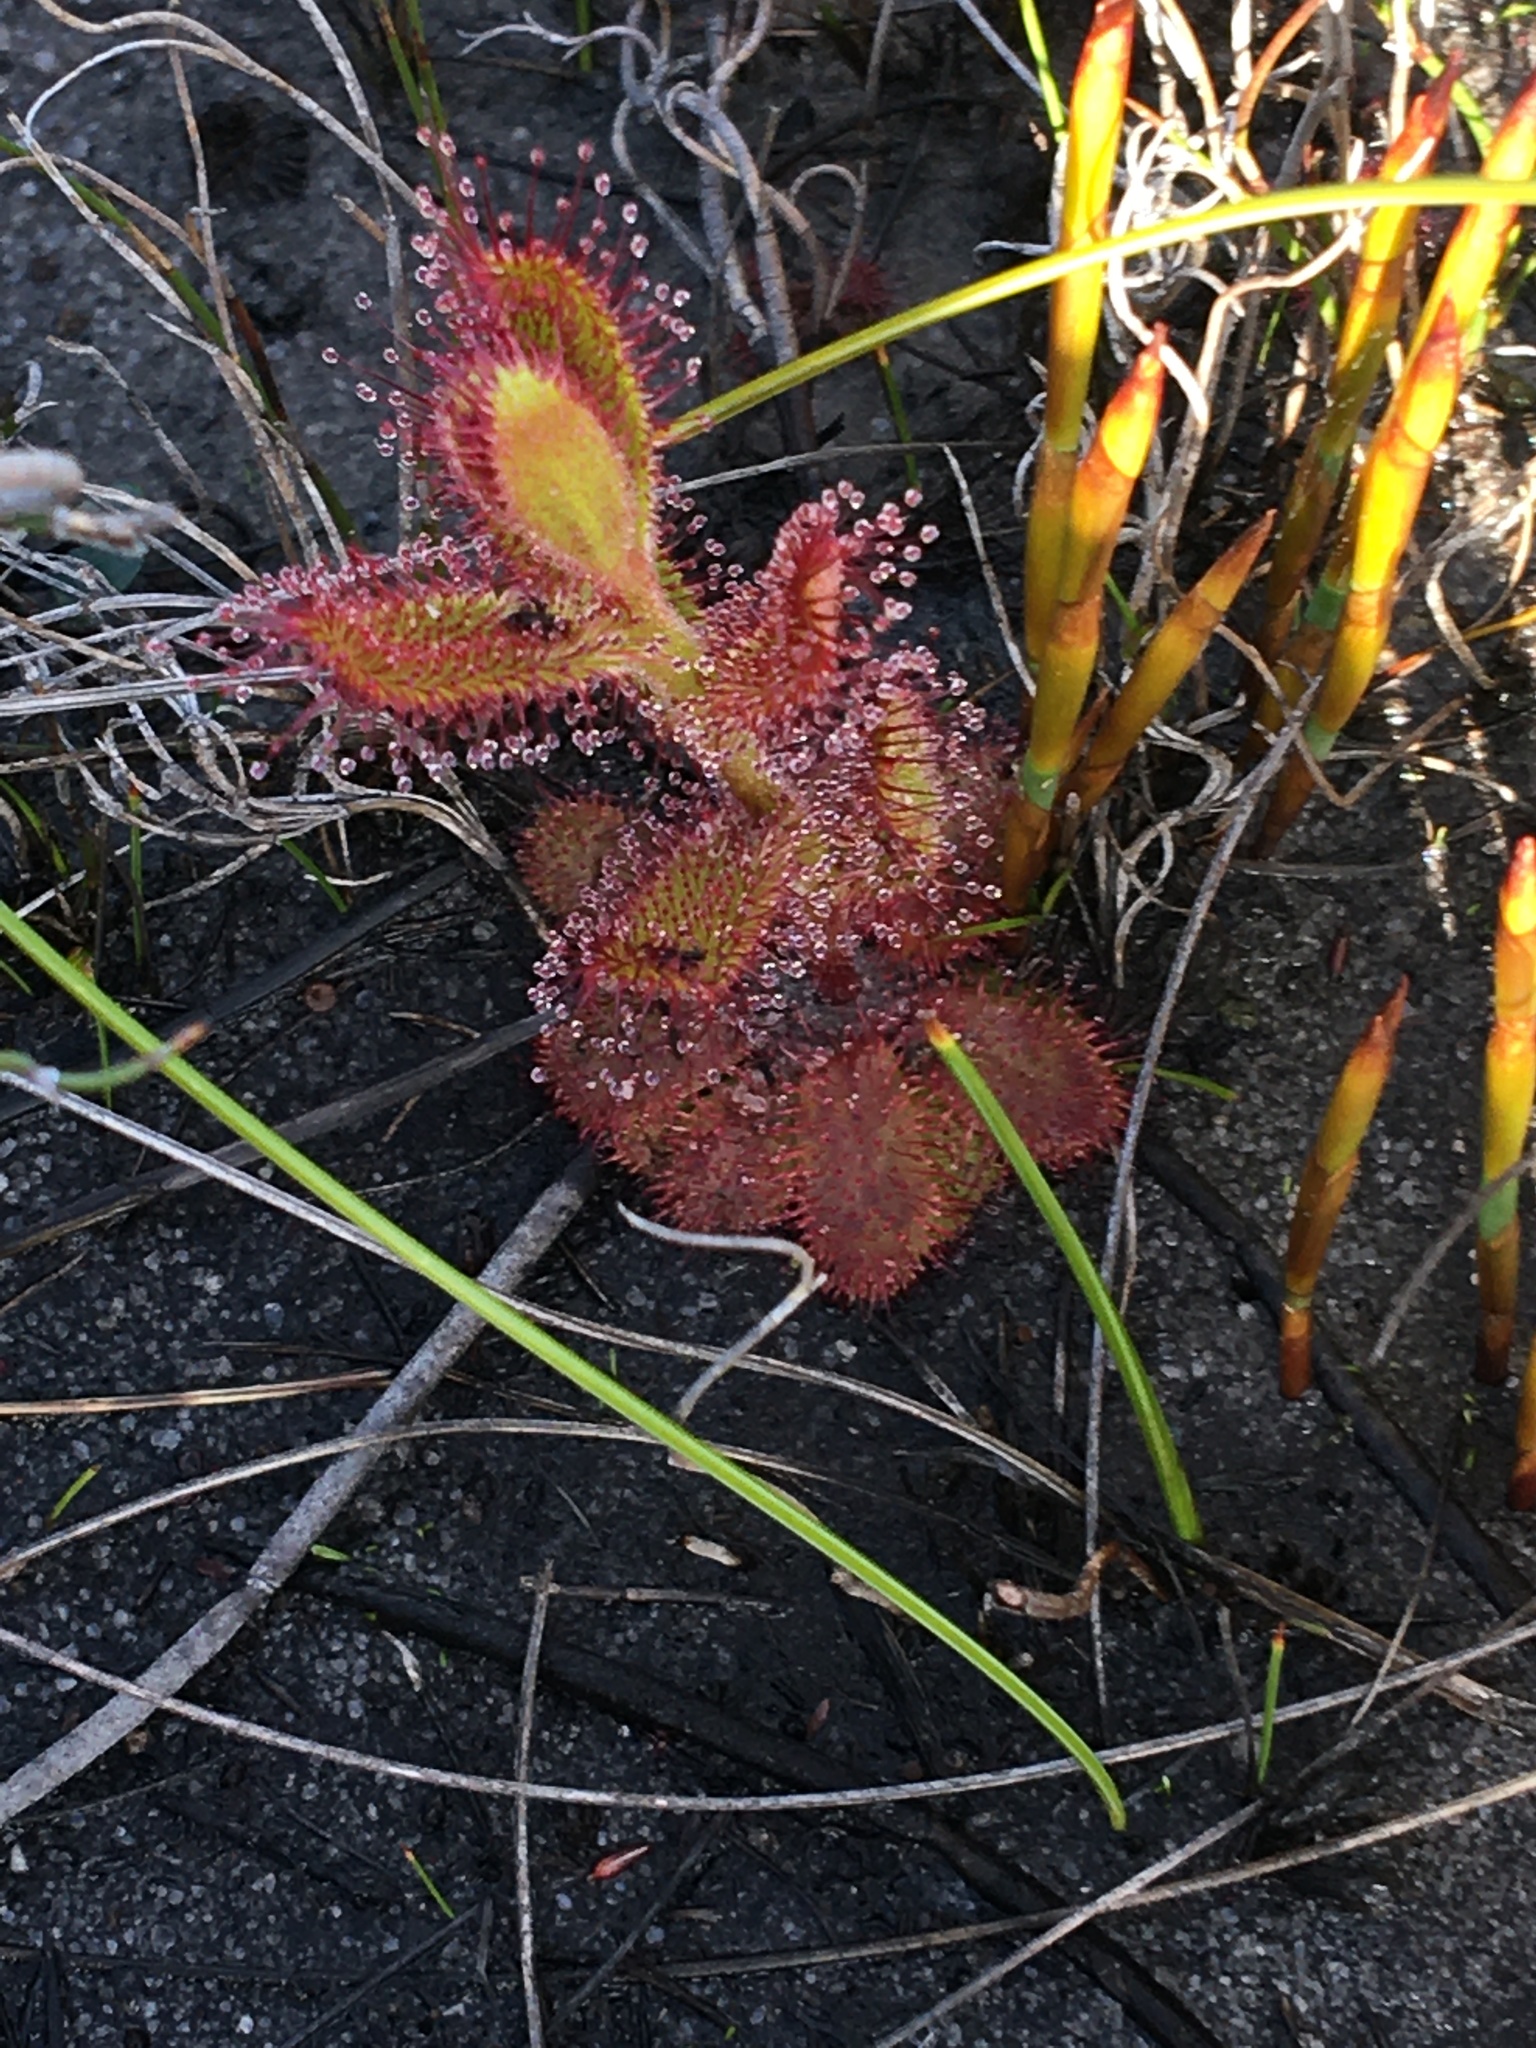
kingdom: Plantae
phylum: Tracheophyta
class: Magnoliopsida
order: Caryophyllales
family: Droseraceae
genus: Drosera
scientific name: Drosera cistiflora
